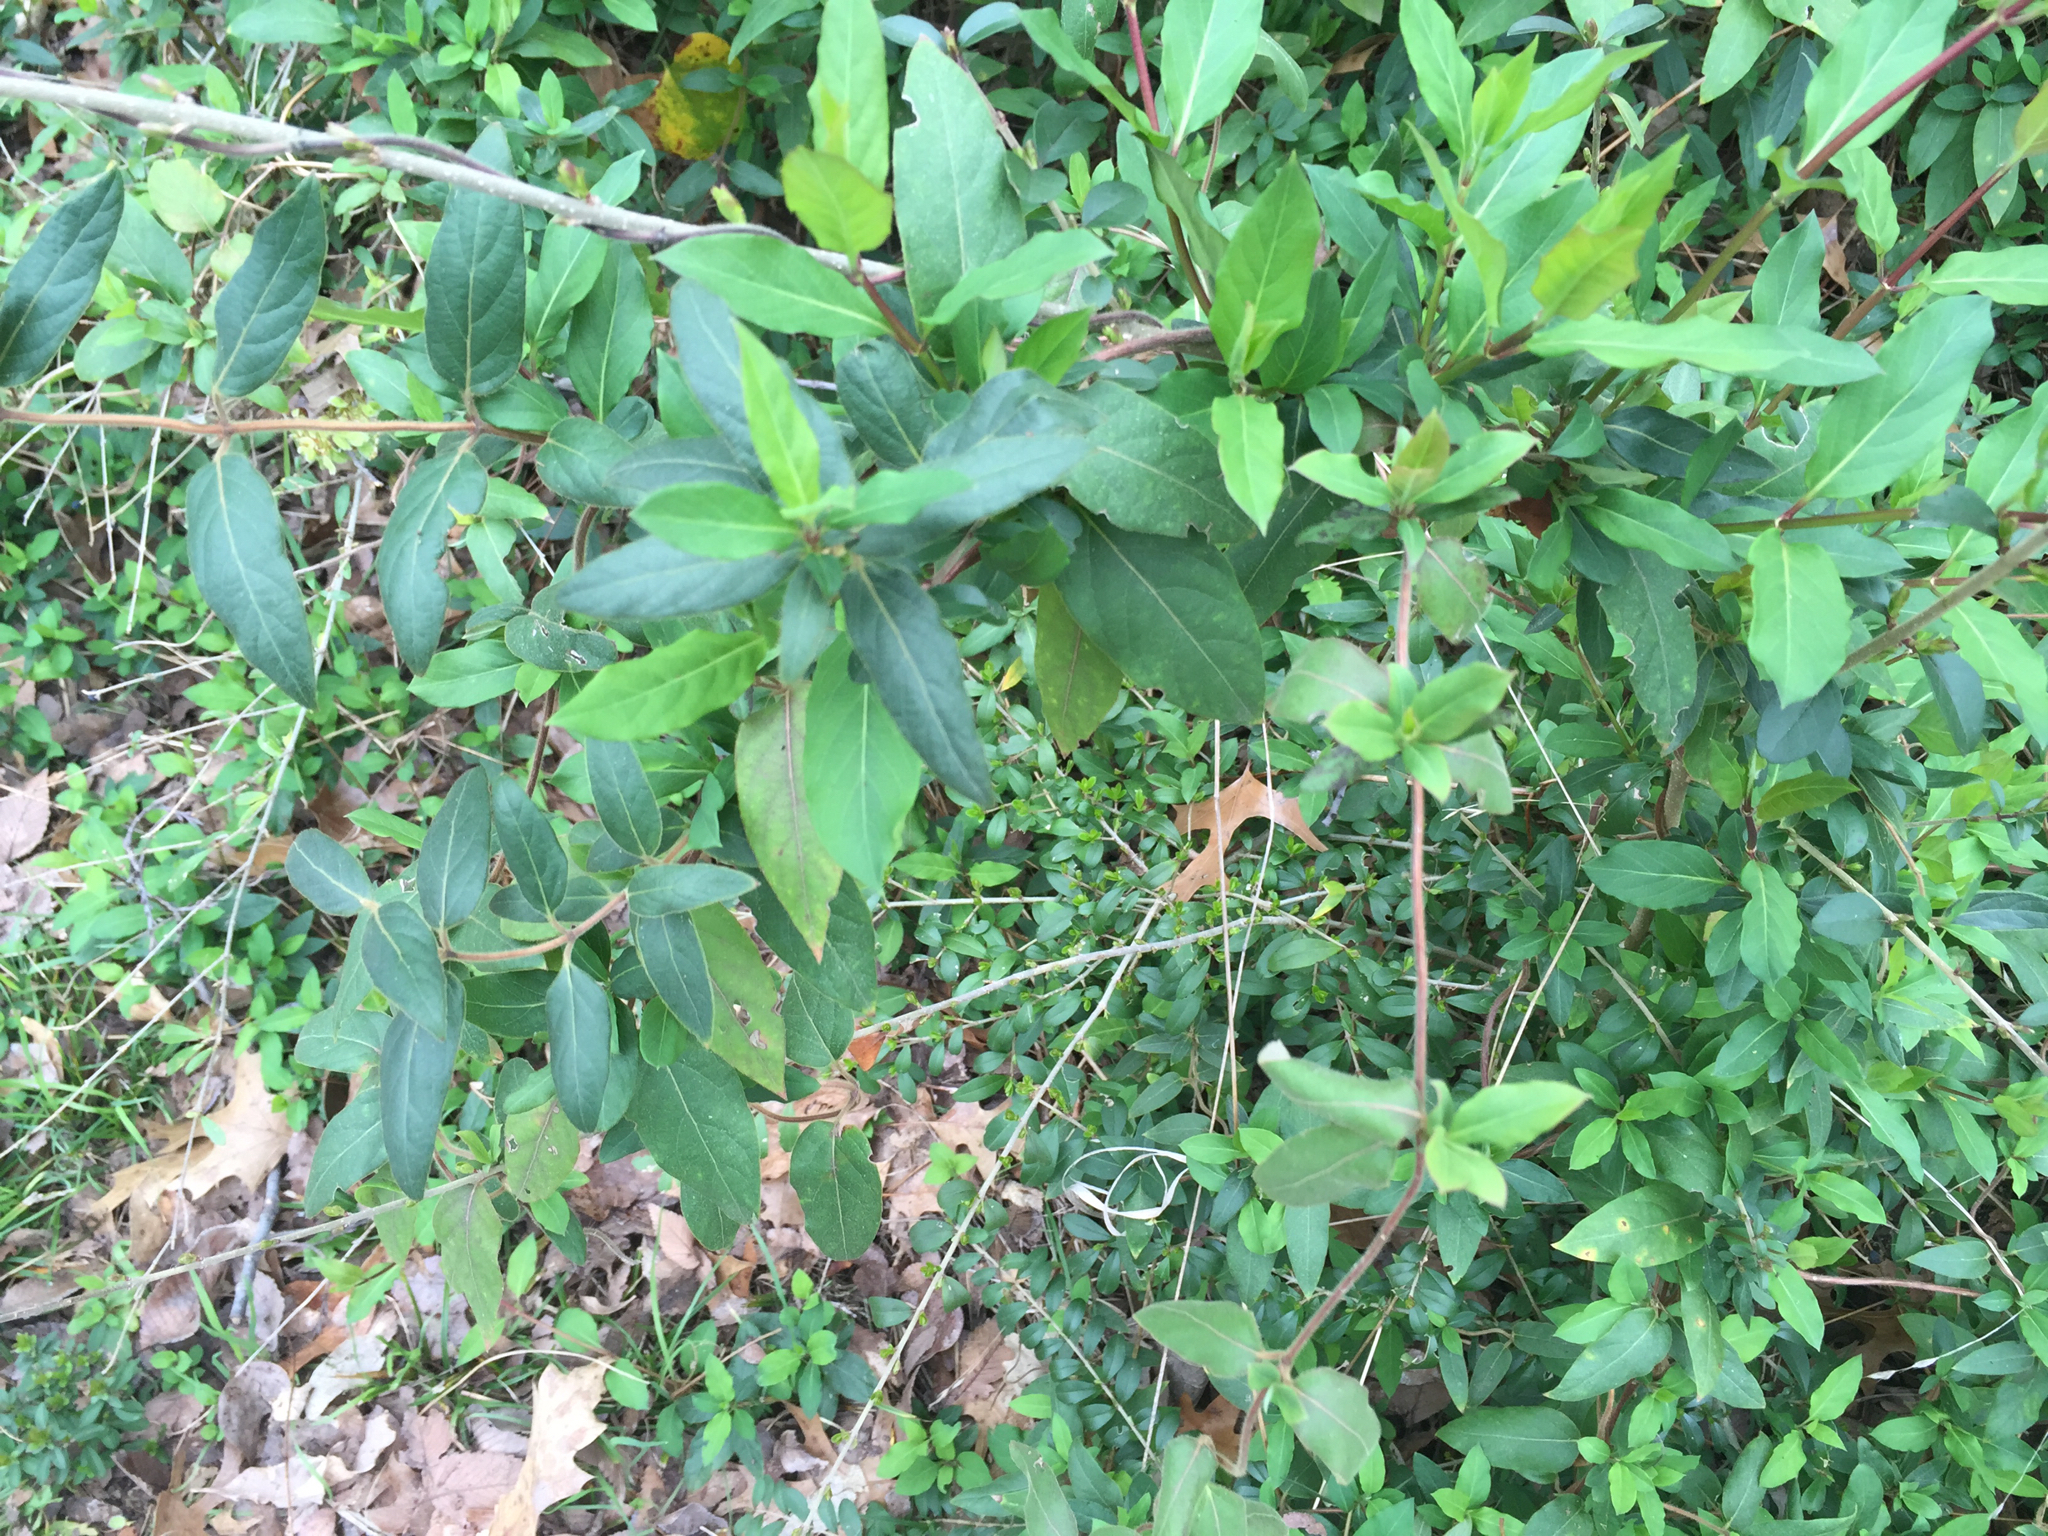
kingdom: Plantae
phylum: Tracheophyta
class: Magnoliopsida
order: Dipsacales
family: Caprifoliaceae
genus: Lonicera
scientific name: Lonicera japonica
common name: Japanese honeysuckle
